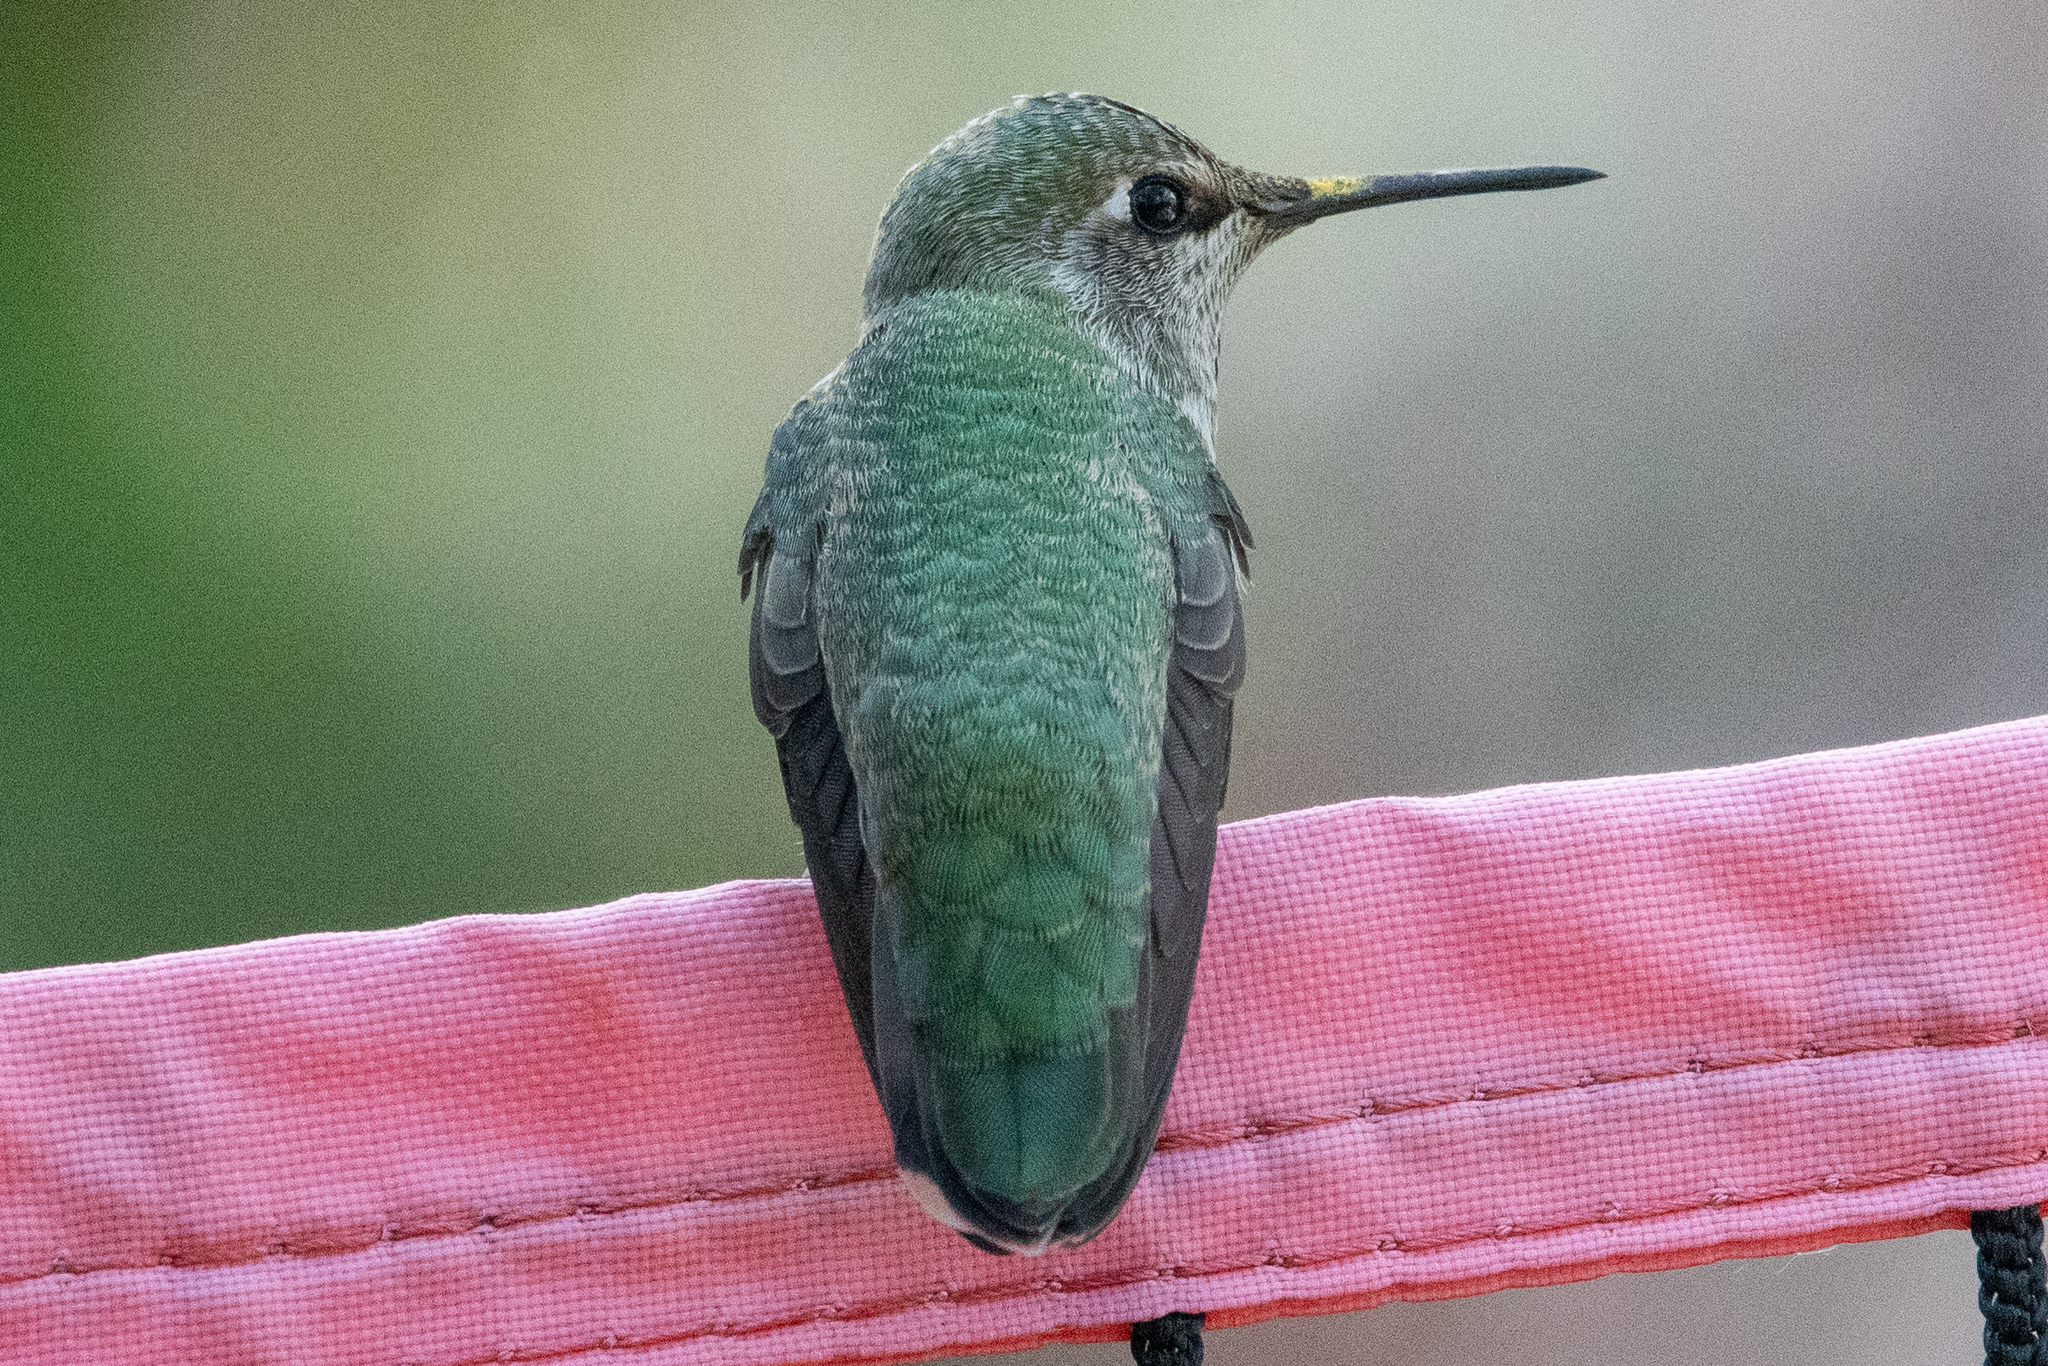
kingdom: Animalia
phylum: Chordata
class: Aves
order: Apodiformes
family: Trochilidae
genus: Calypte
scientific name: Calypte anna
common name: Anna's hummingbird
